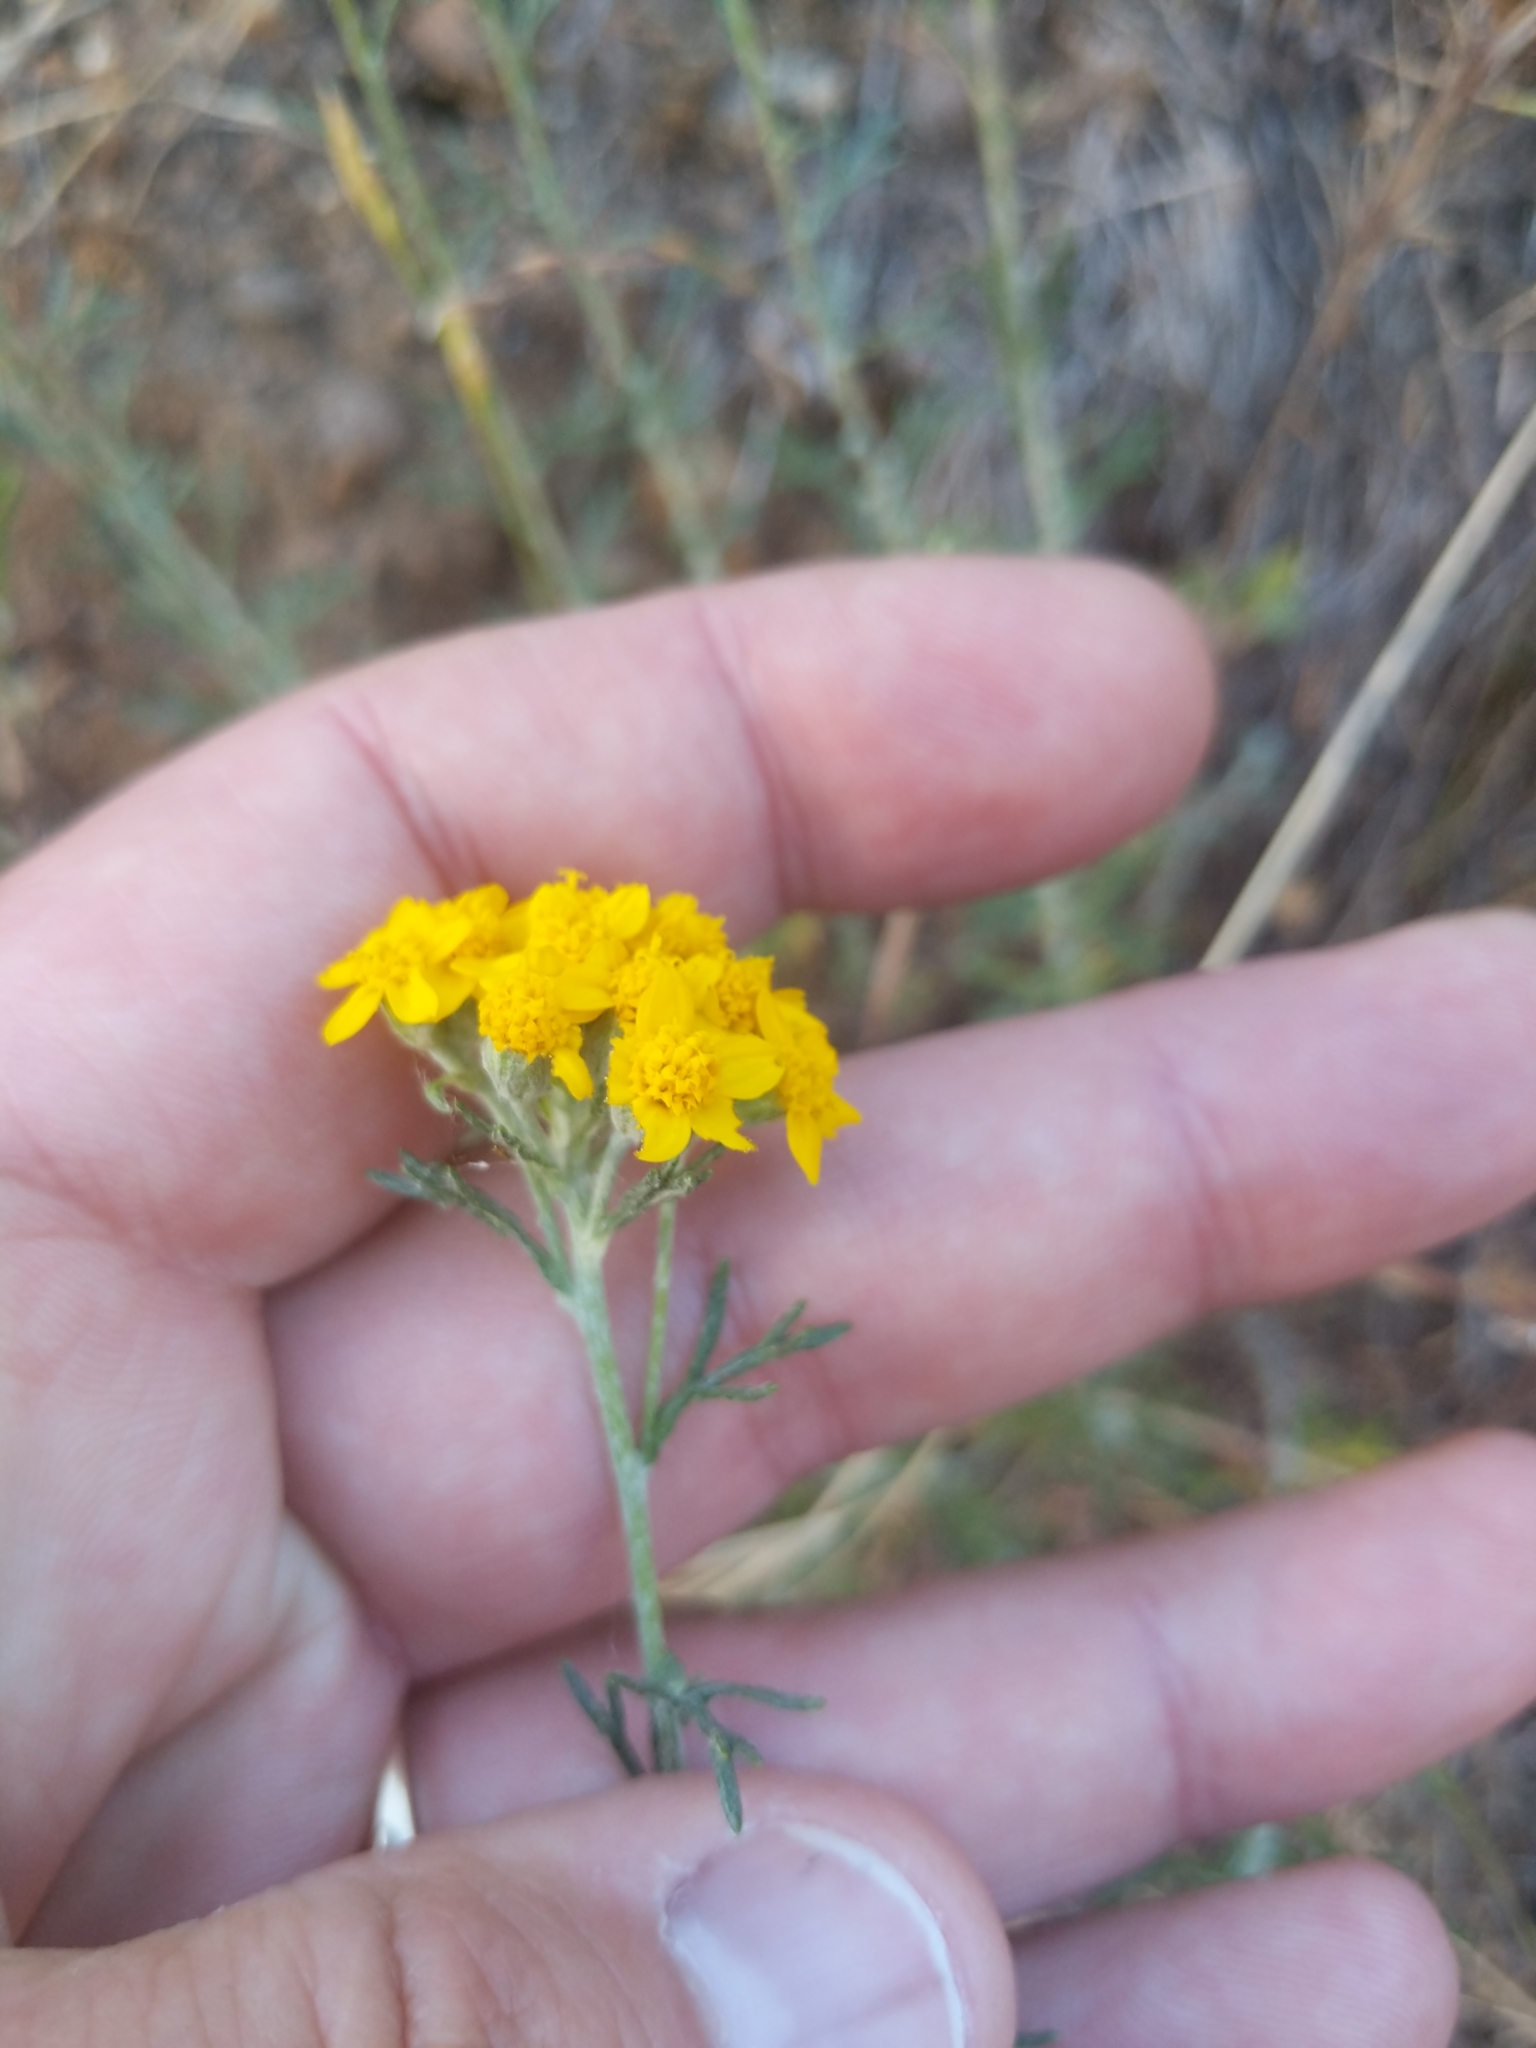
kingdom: Plantae
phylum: Tracheophyta
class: Magnoliopsida
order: Asterales
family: Asteraceae
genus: Eriophyllum
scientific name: Eriophyllum confertiflorum
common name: Golden-yarrow
